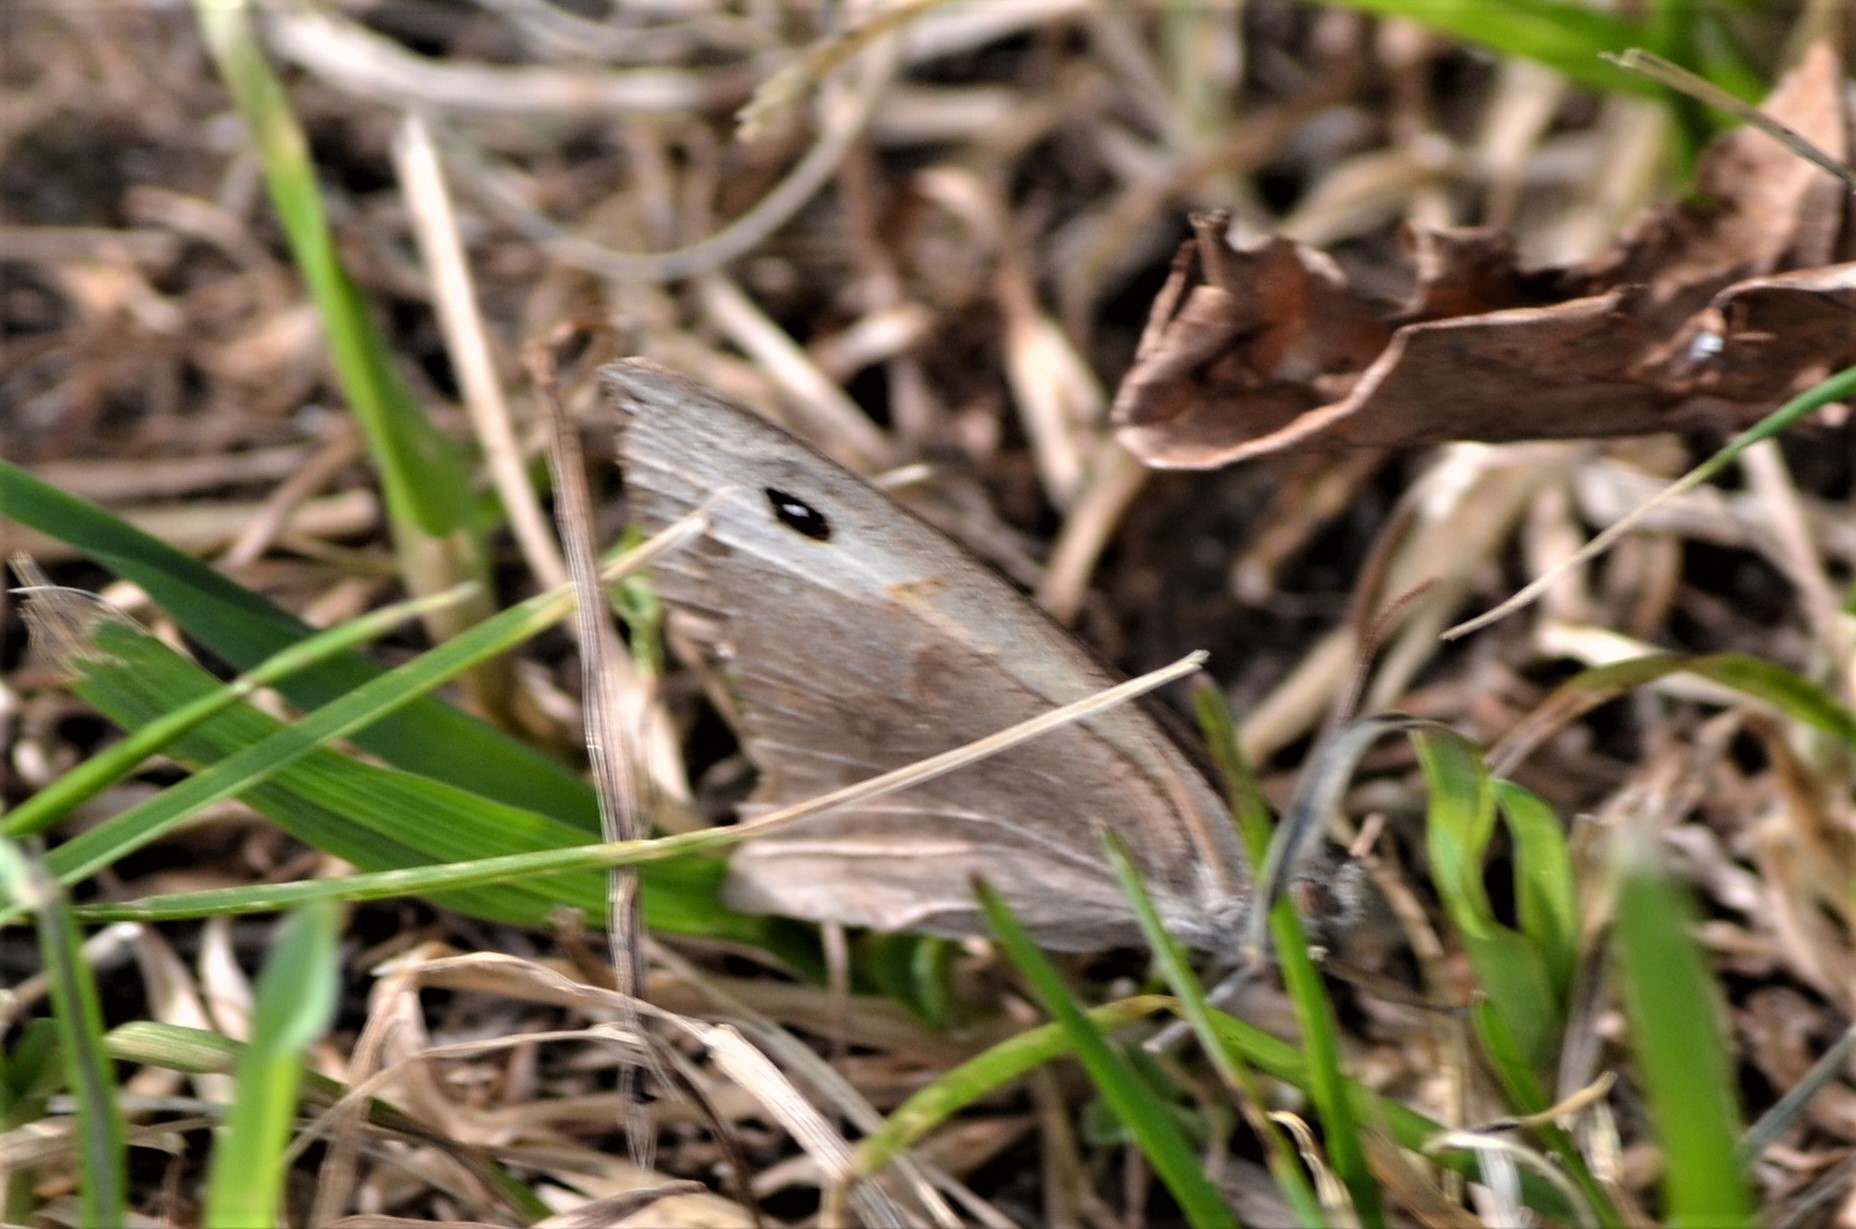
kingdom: Animalia
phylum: Arthropoda
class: Insecta
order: Lepidoptera
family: Nymphalidae
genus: Maniola
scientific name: Maniola jurtina
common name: Meadow brown
